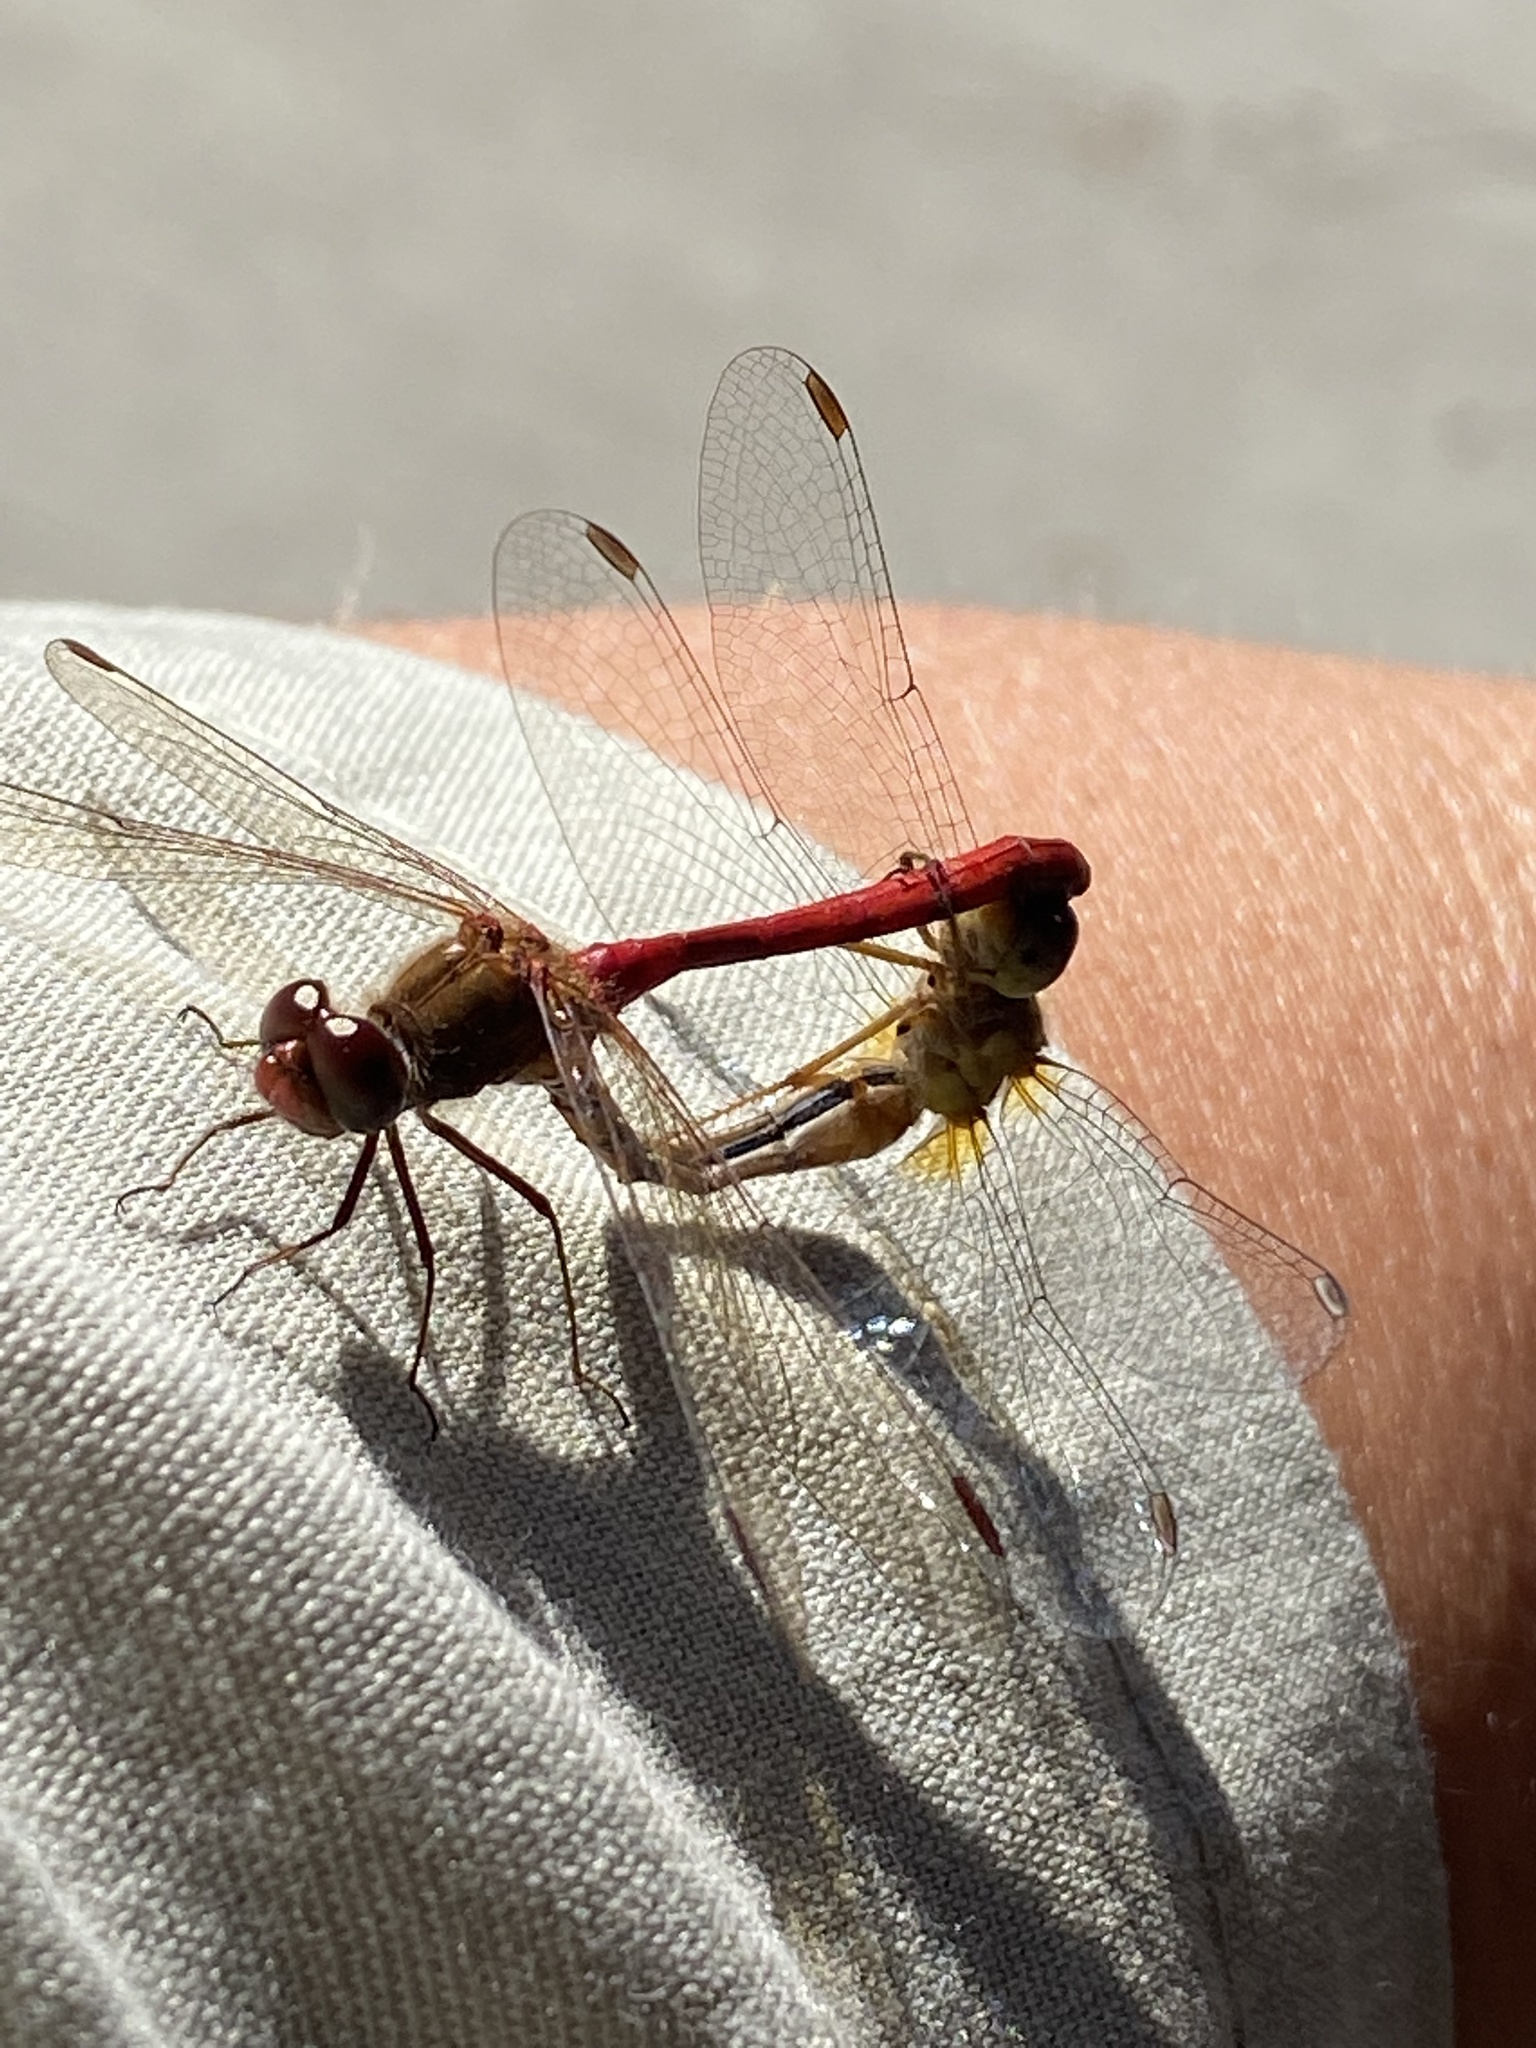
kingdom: Animalia
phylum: Arthropoda
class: Insecta
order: Odonata
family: Libellulidae
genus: Sympetrum
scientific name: Sympetrum vicinum
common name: Autumn meadowhawk
